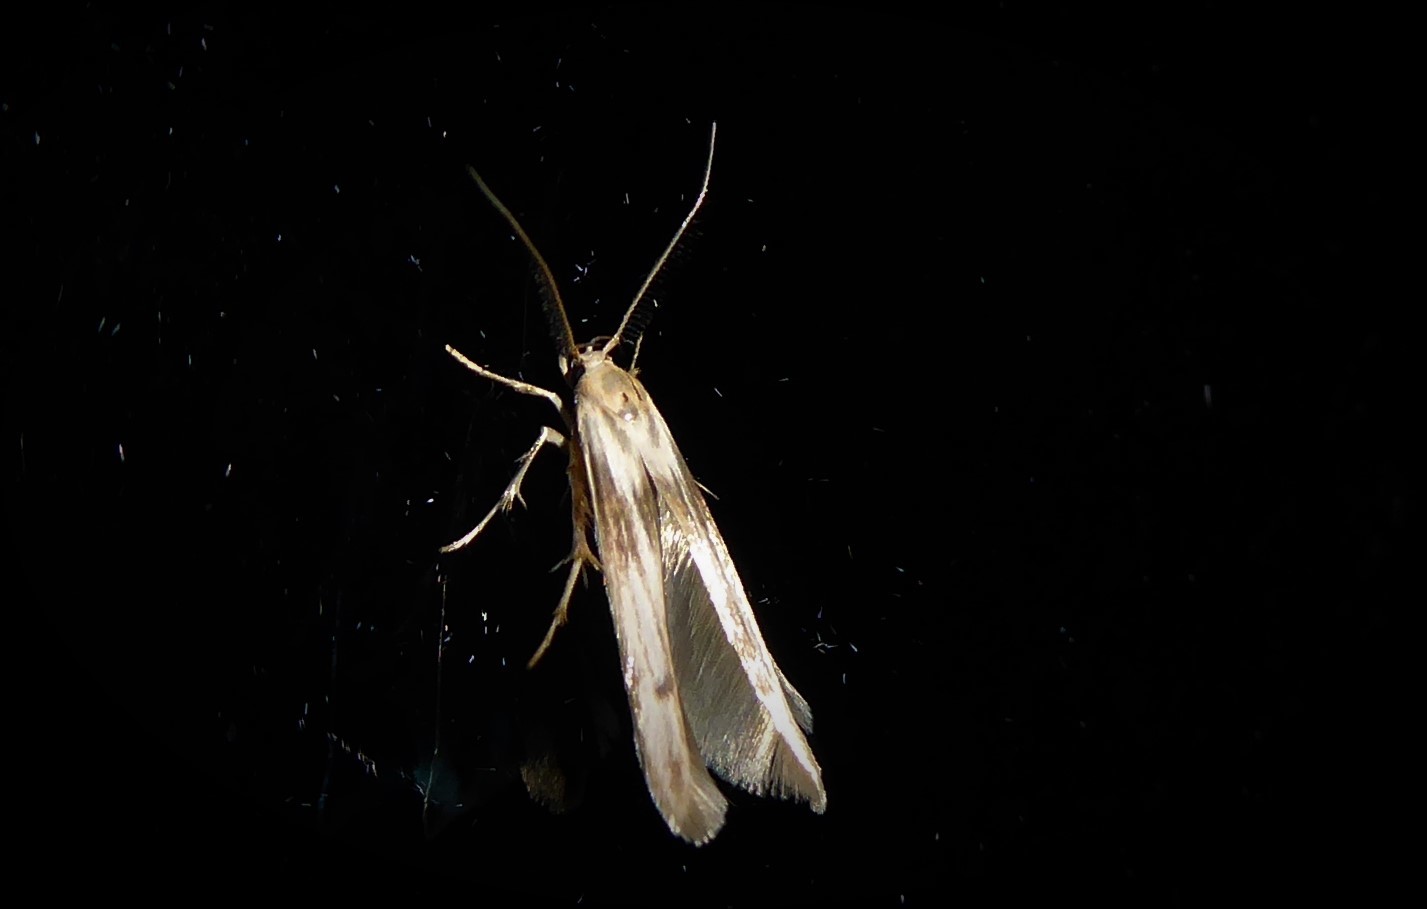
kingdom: Animalia
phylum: Arthropoda
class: Insecta
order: Lepidoptera
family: Stathmopodidae
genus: Stathmopoda
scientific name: Stathmopoda aposema
